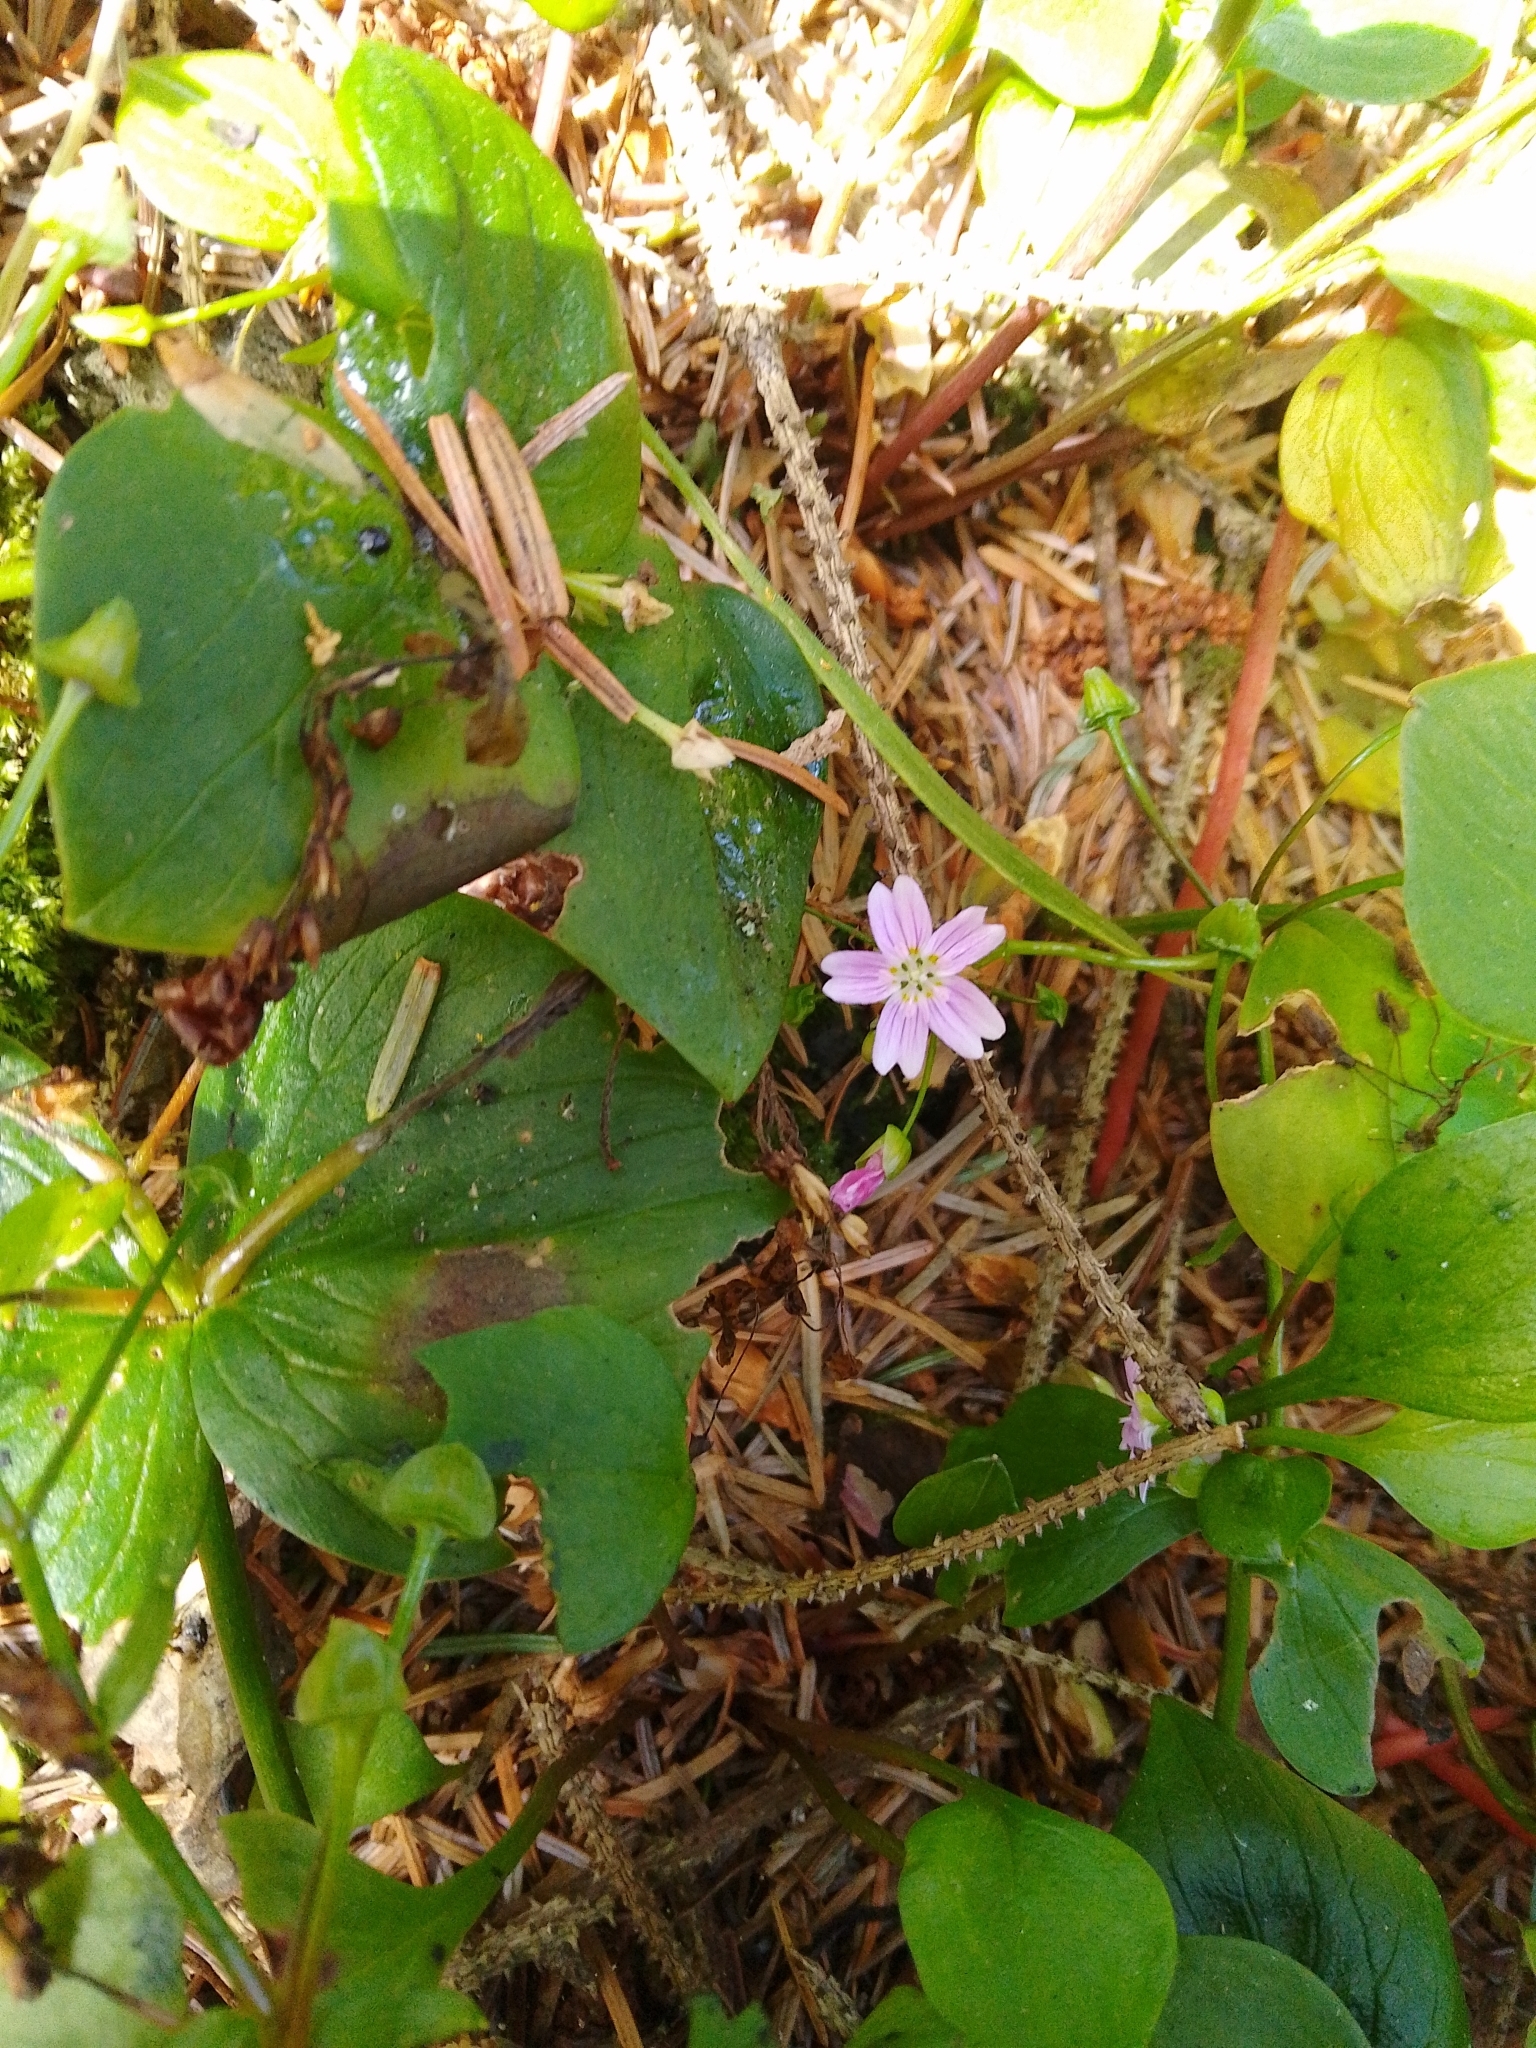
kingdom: Plantae
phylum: Tracheophyta
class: Magnoliopsida
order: Caryophyllales
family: Montiaceae
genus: Claytonia
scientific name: Claytonia sibirica
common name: Pink purslane
